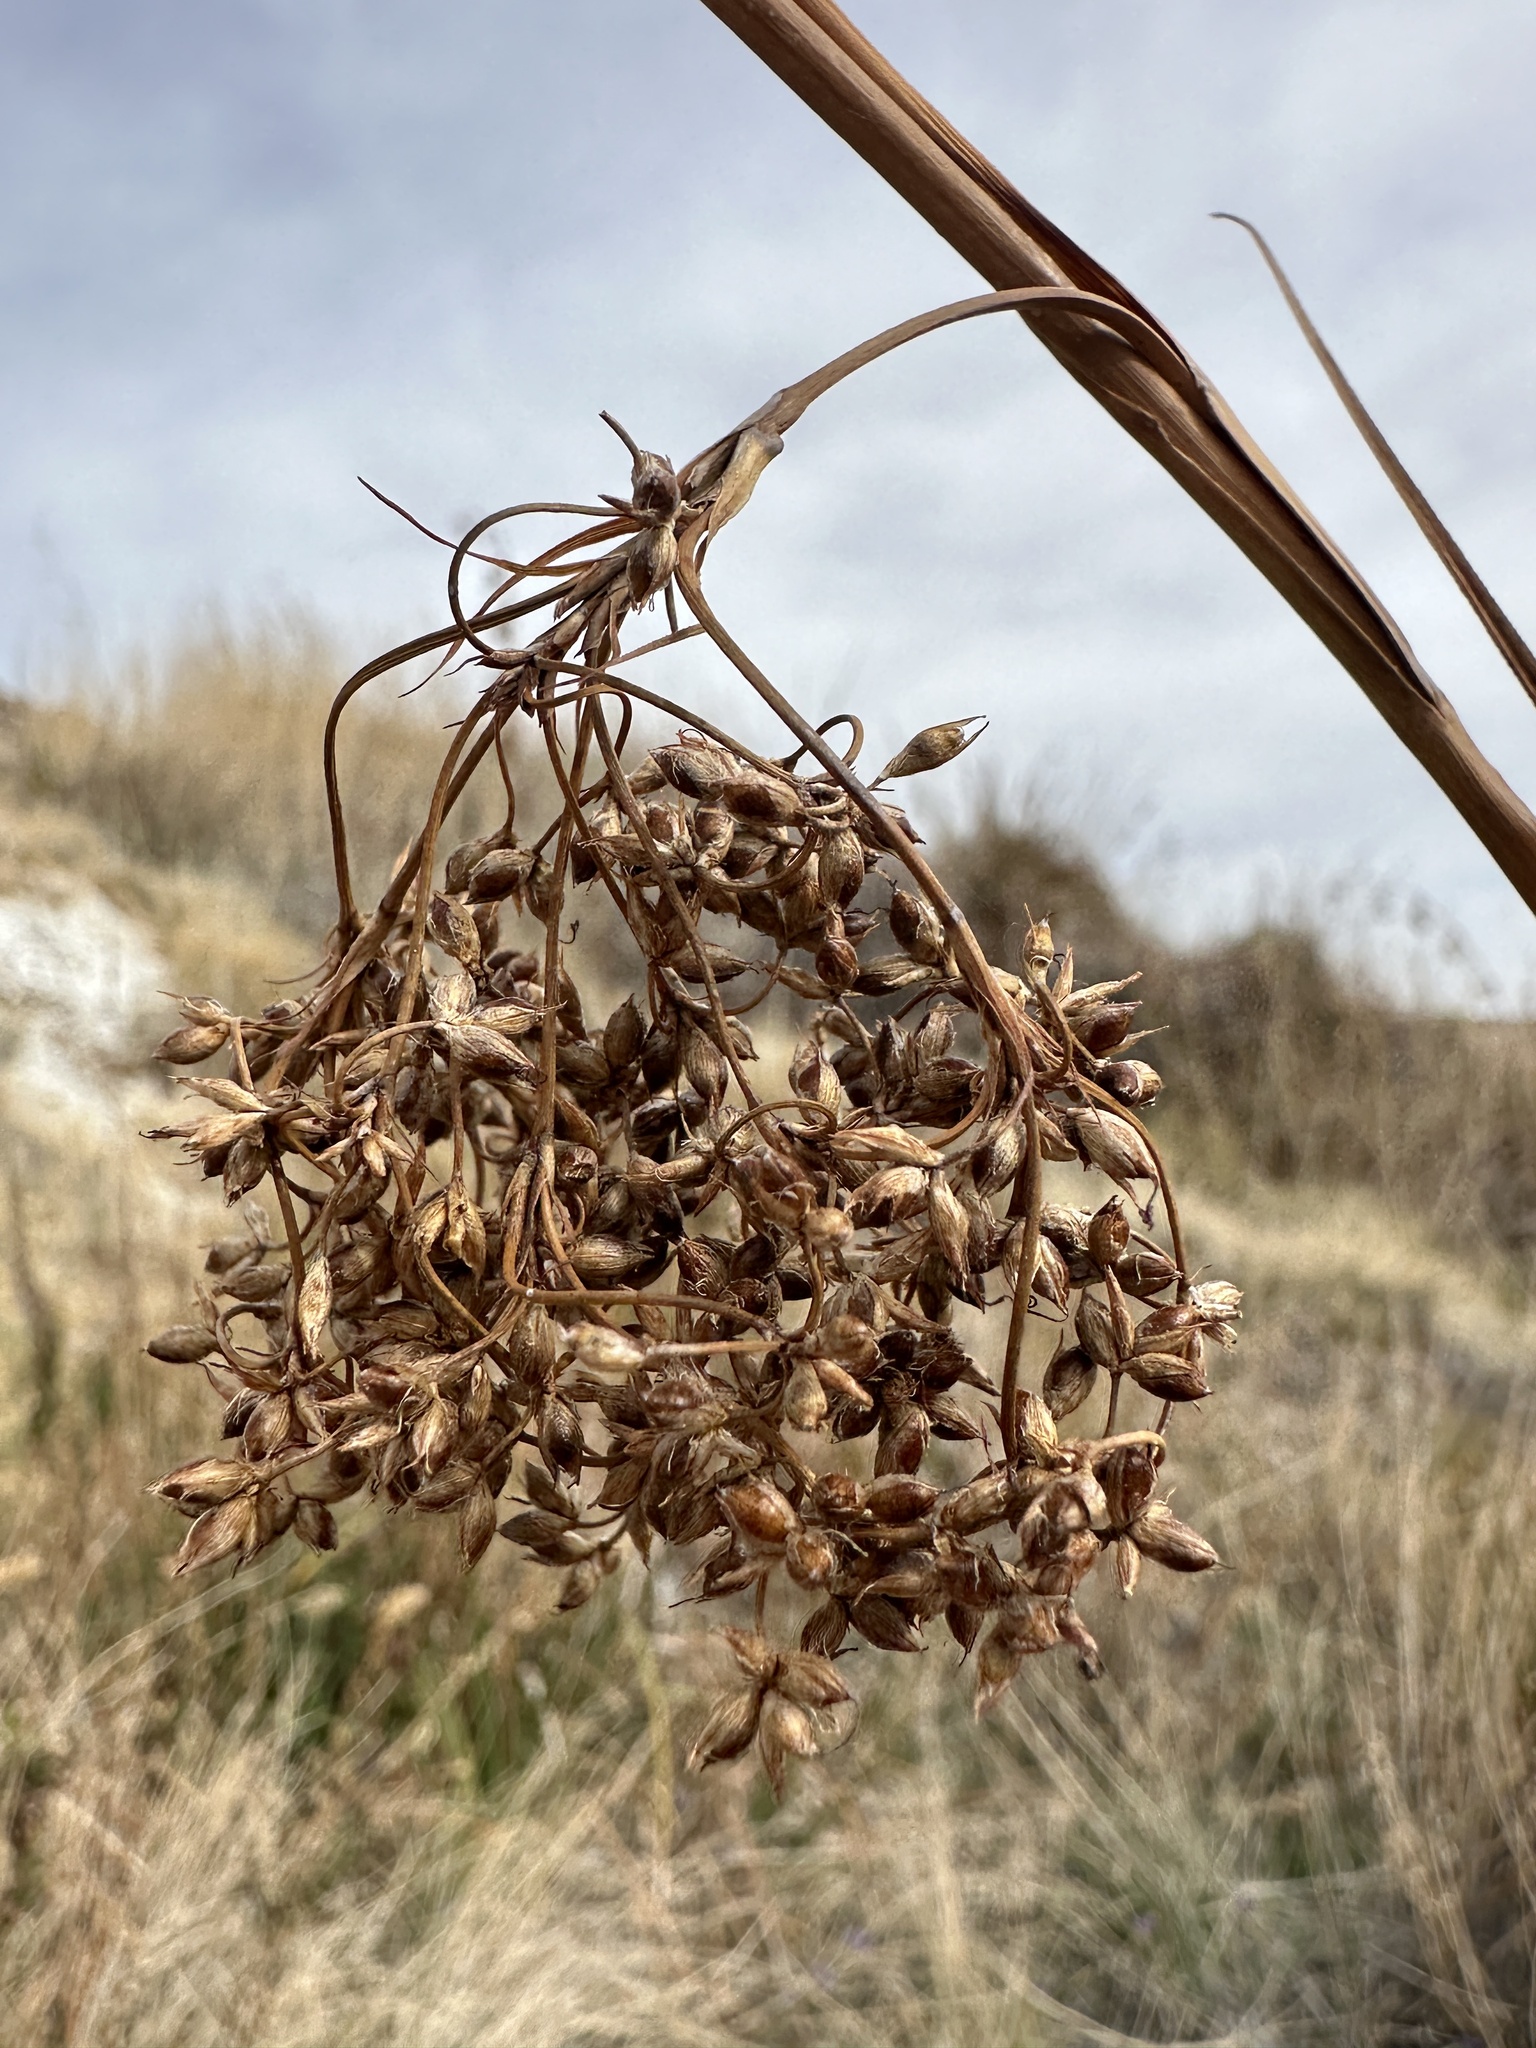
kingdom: Plantae
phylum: Tracheophyta
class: Liliopsida
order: Poales
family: Cyperaceae
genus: Cladium
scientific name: Cladium mariscus
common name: Great fen-sedge
